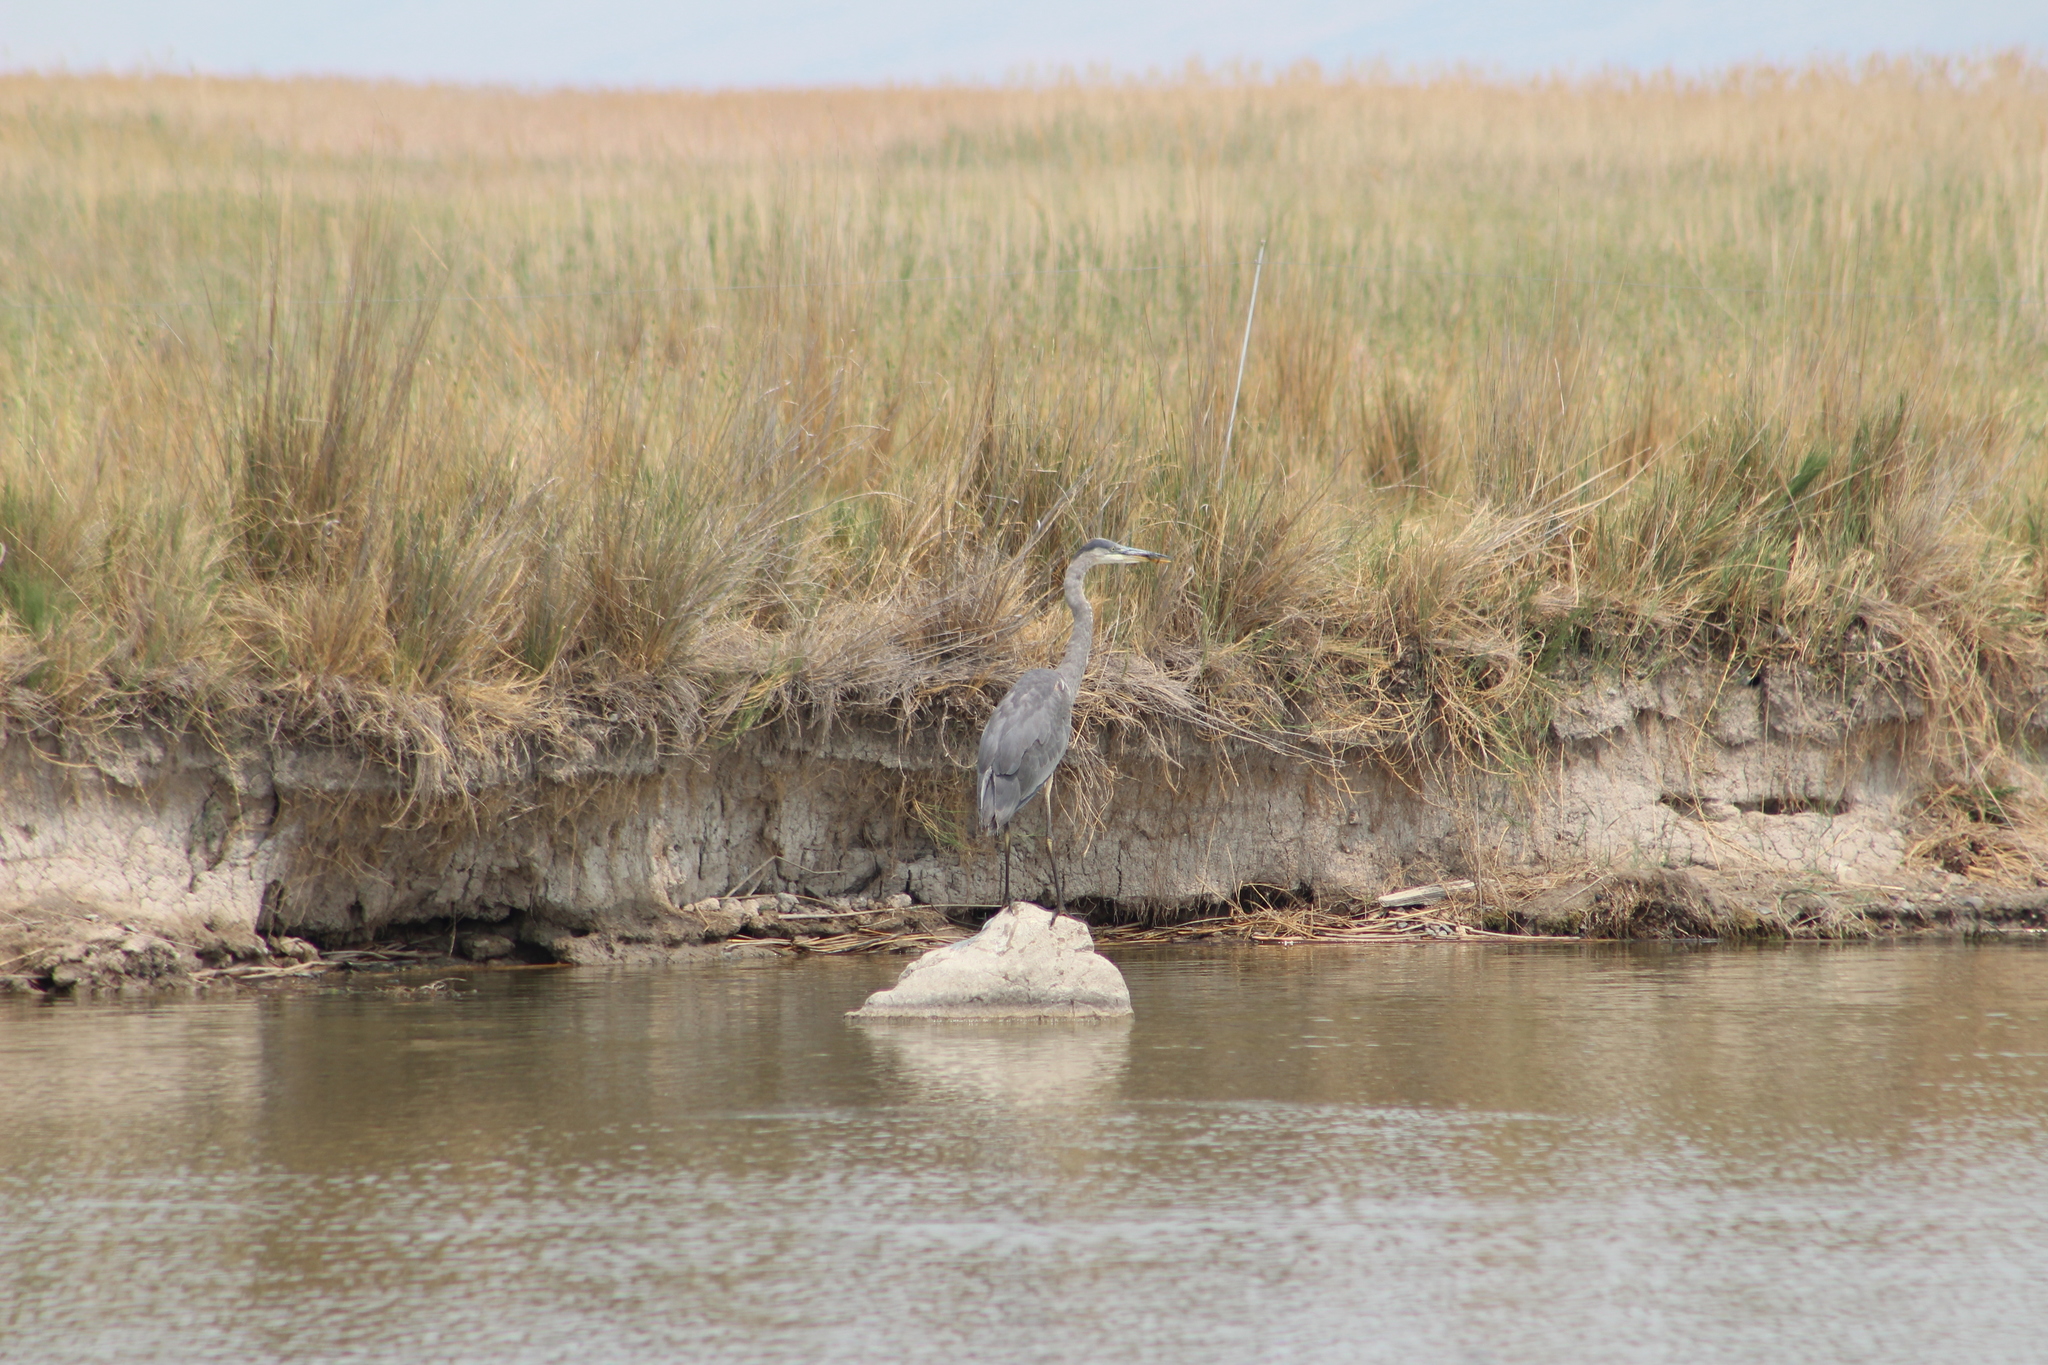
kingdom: Animalia
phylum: Chordata
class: Aves
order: Pelecaniformes
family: Ardeidae
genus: Ardea
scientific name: Ardea herodias
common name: Great blue heron
